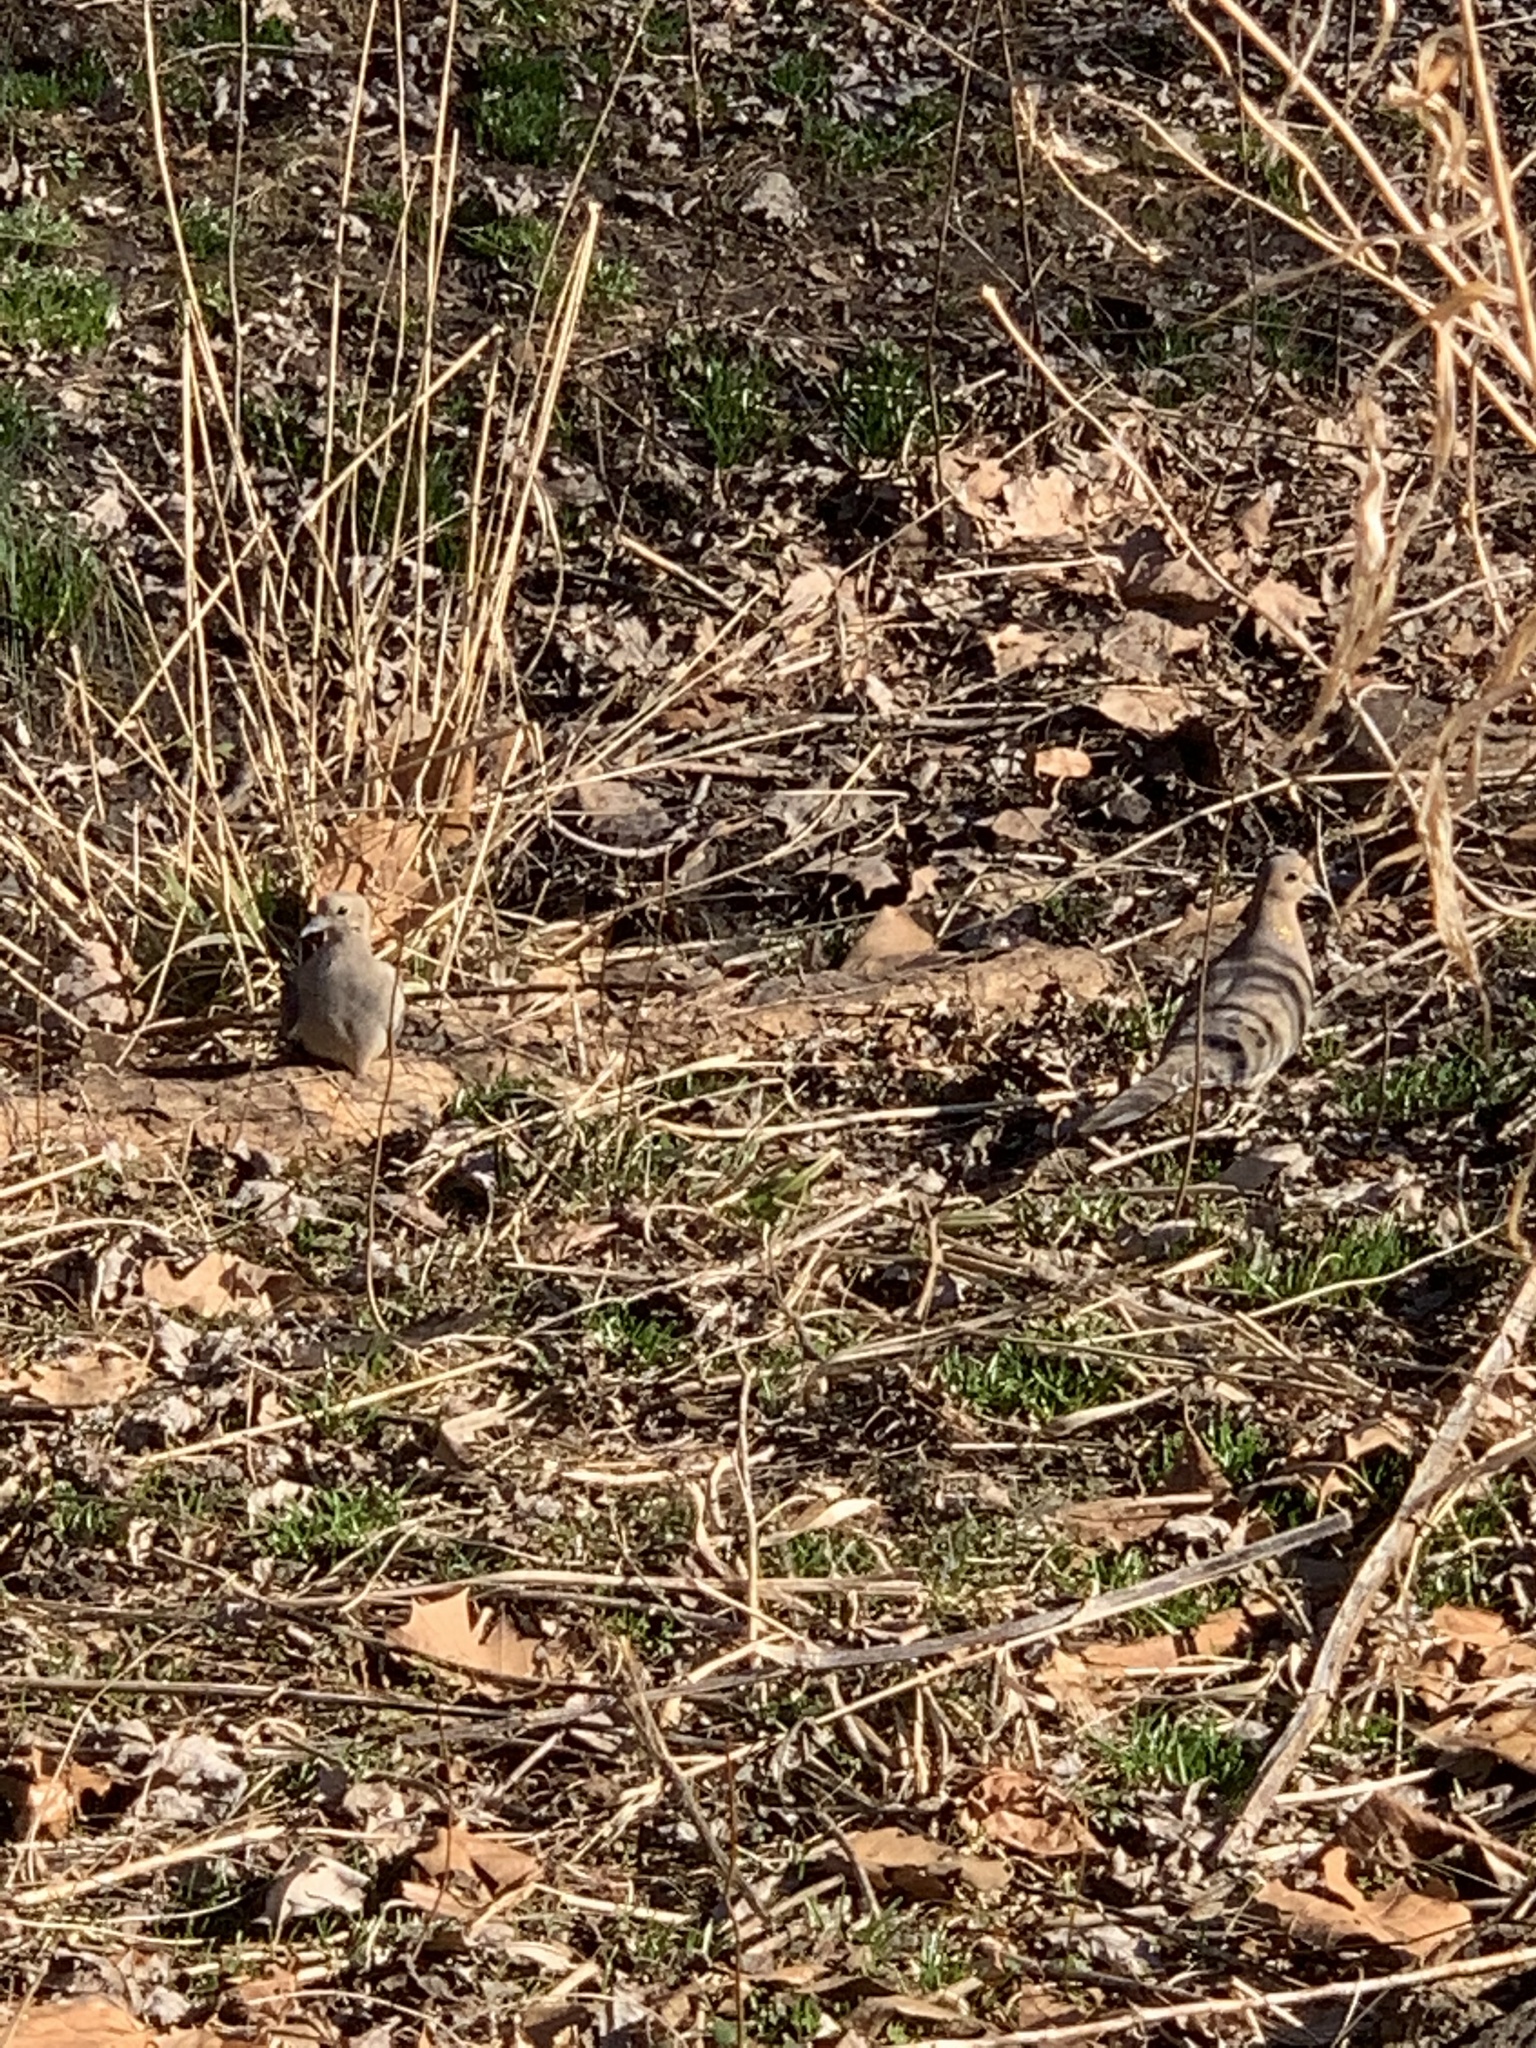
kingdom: Animalia
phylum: Chordata
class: Aves
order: Columbiformes
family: Columbidae
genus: Zenaida
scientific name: Zenaida macroura
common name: Mourning dove
